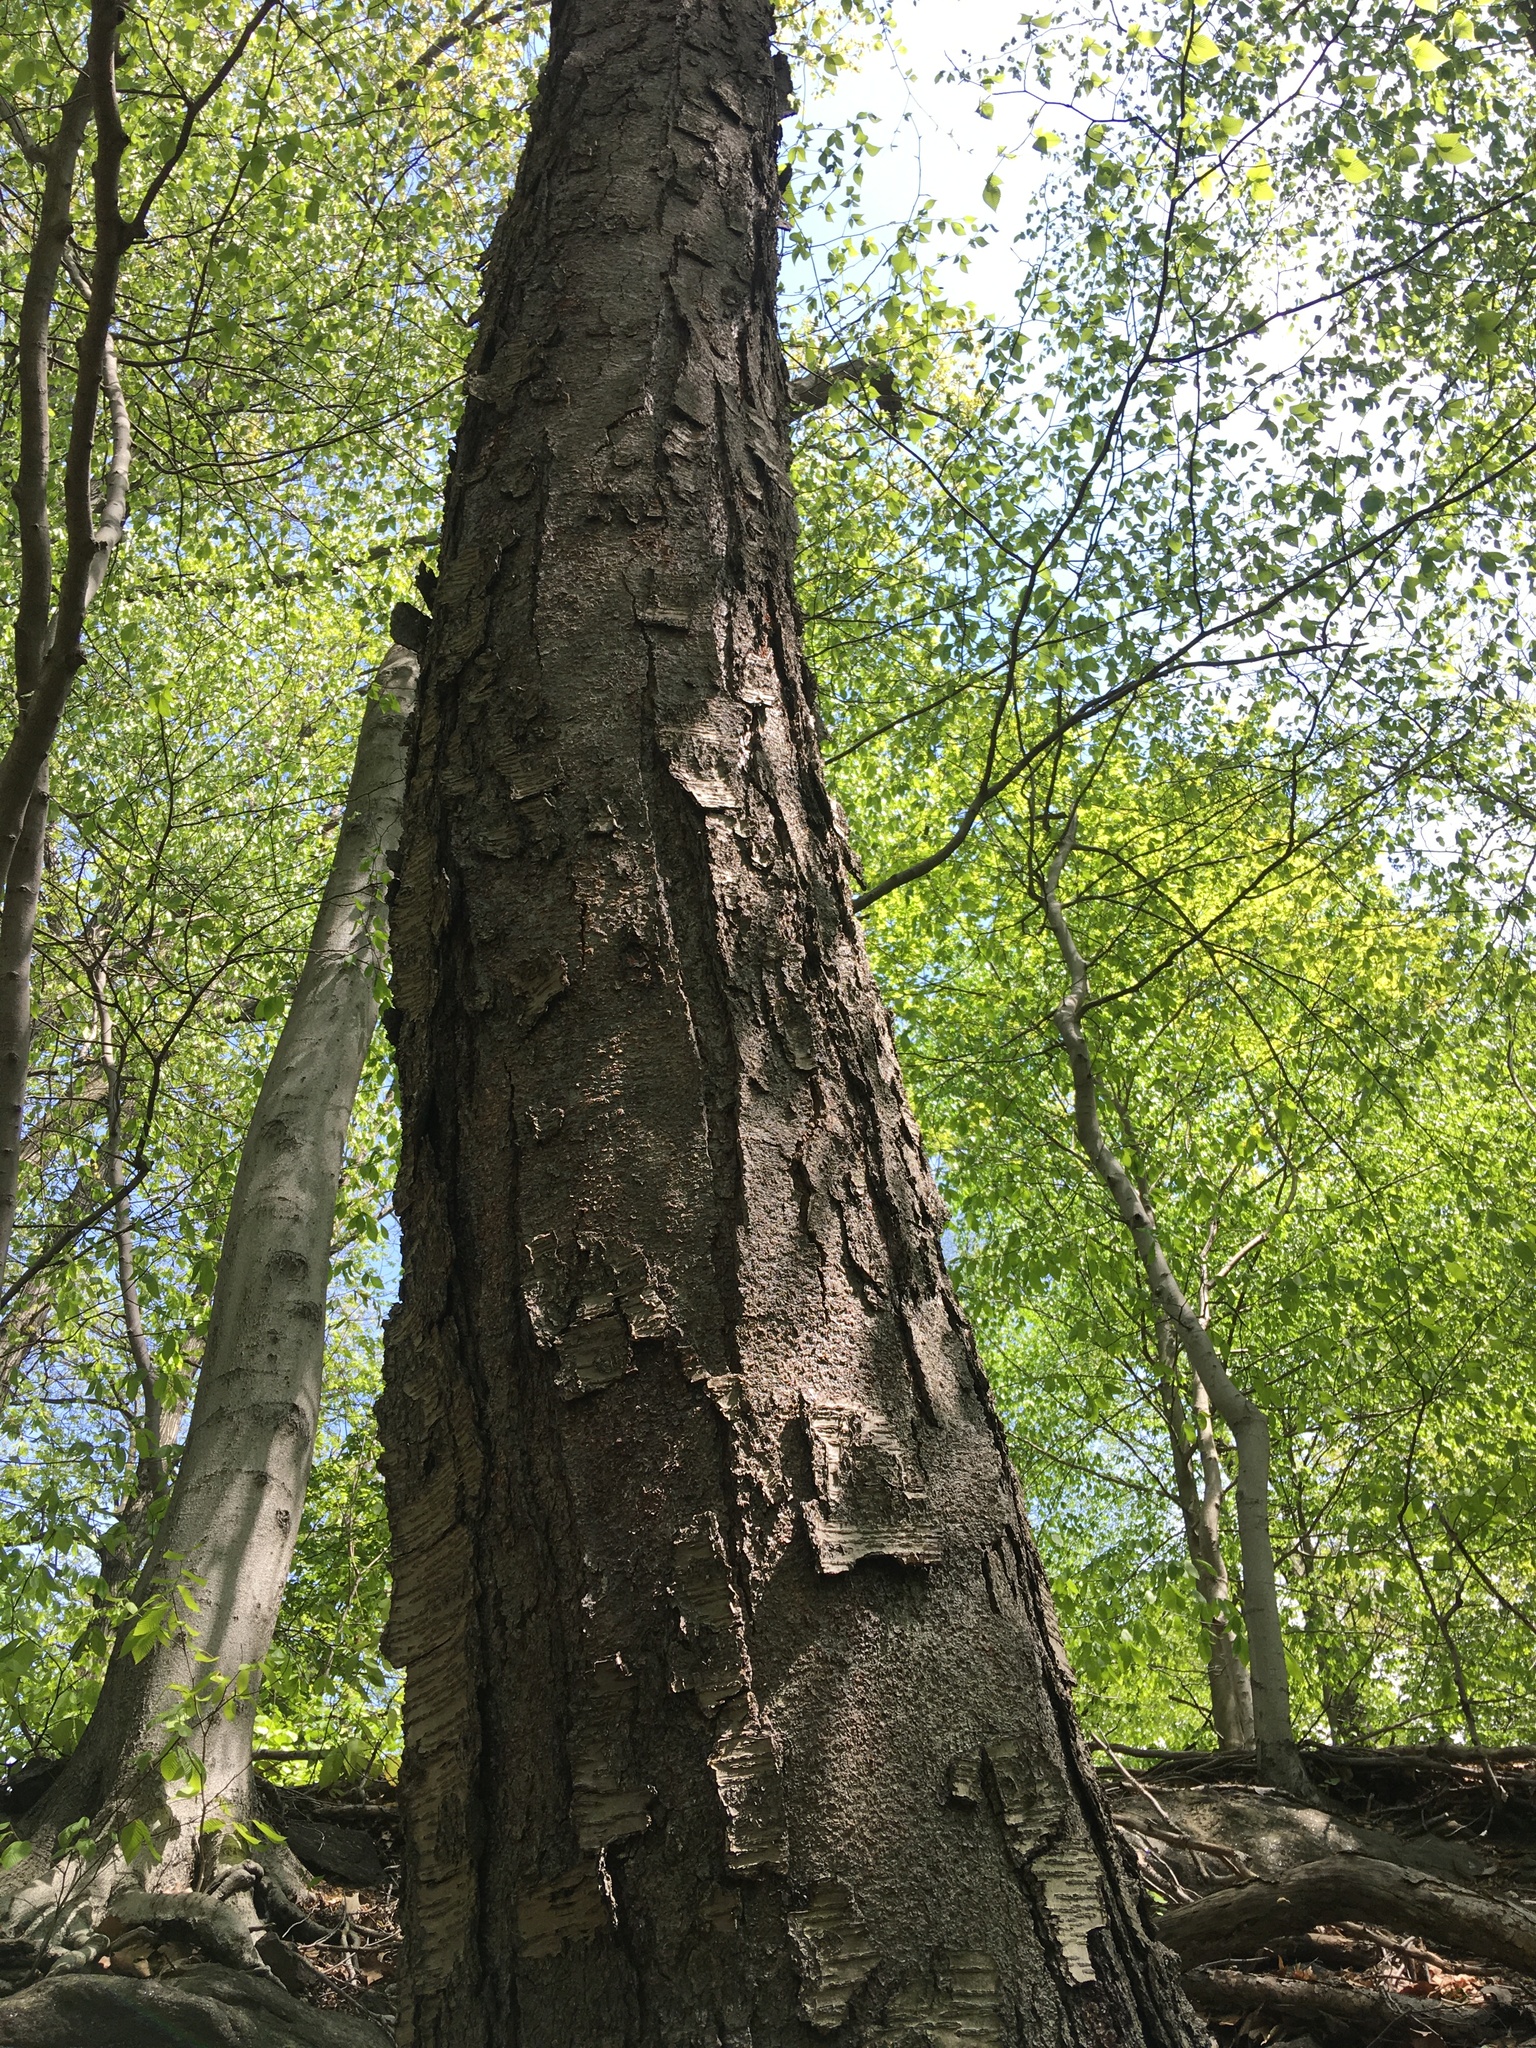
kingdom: Plantae
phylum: Tracheophyta
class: Magnoliopsida
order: Fagales
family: Betulaceae
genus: Betula
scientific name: Betula lenta
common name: Black birch
